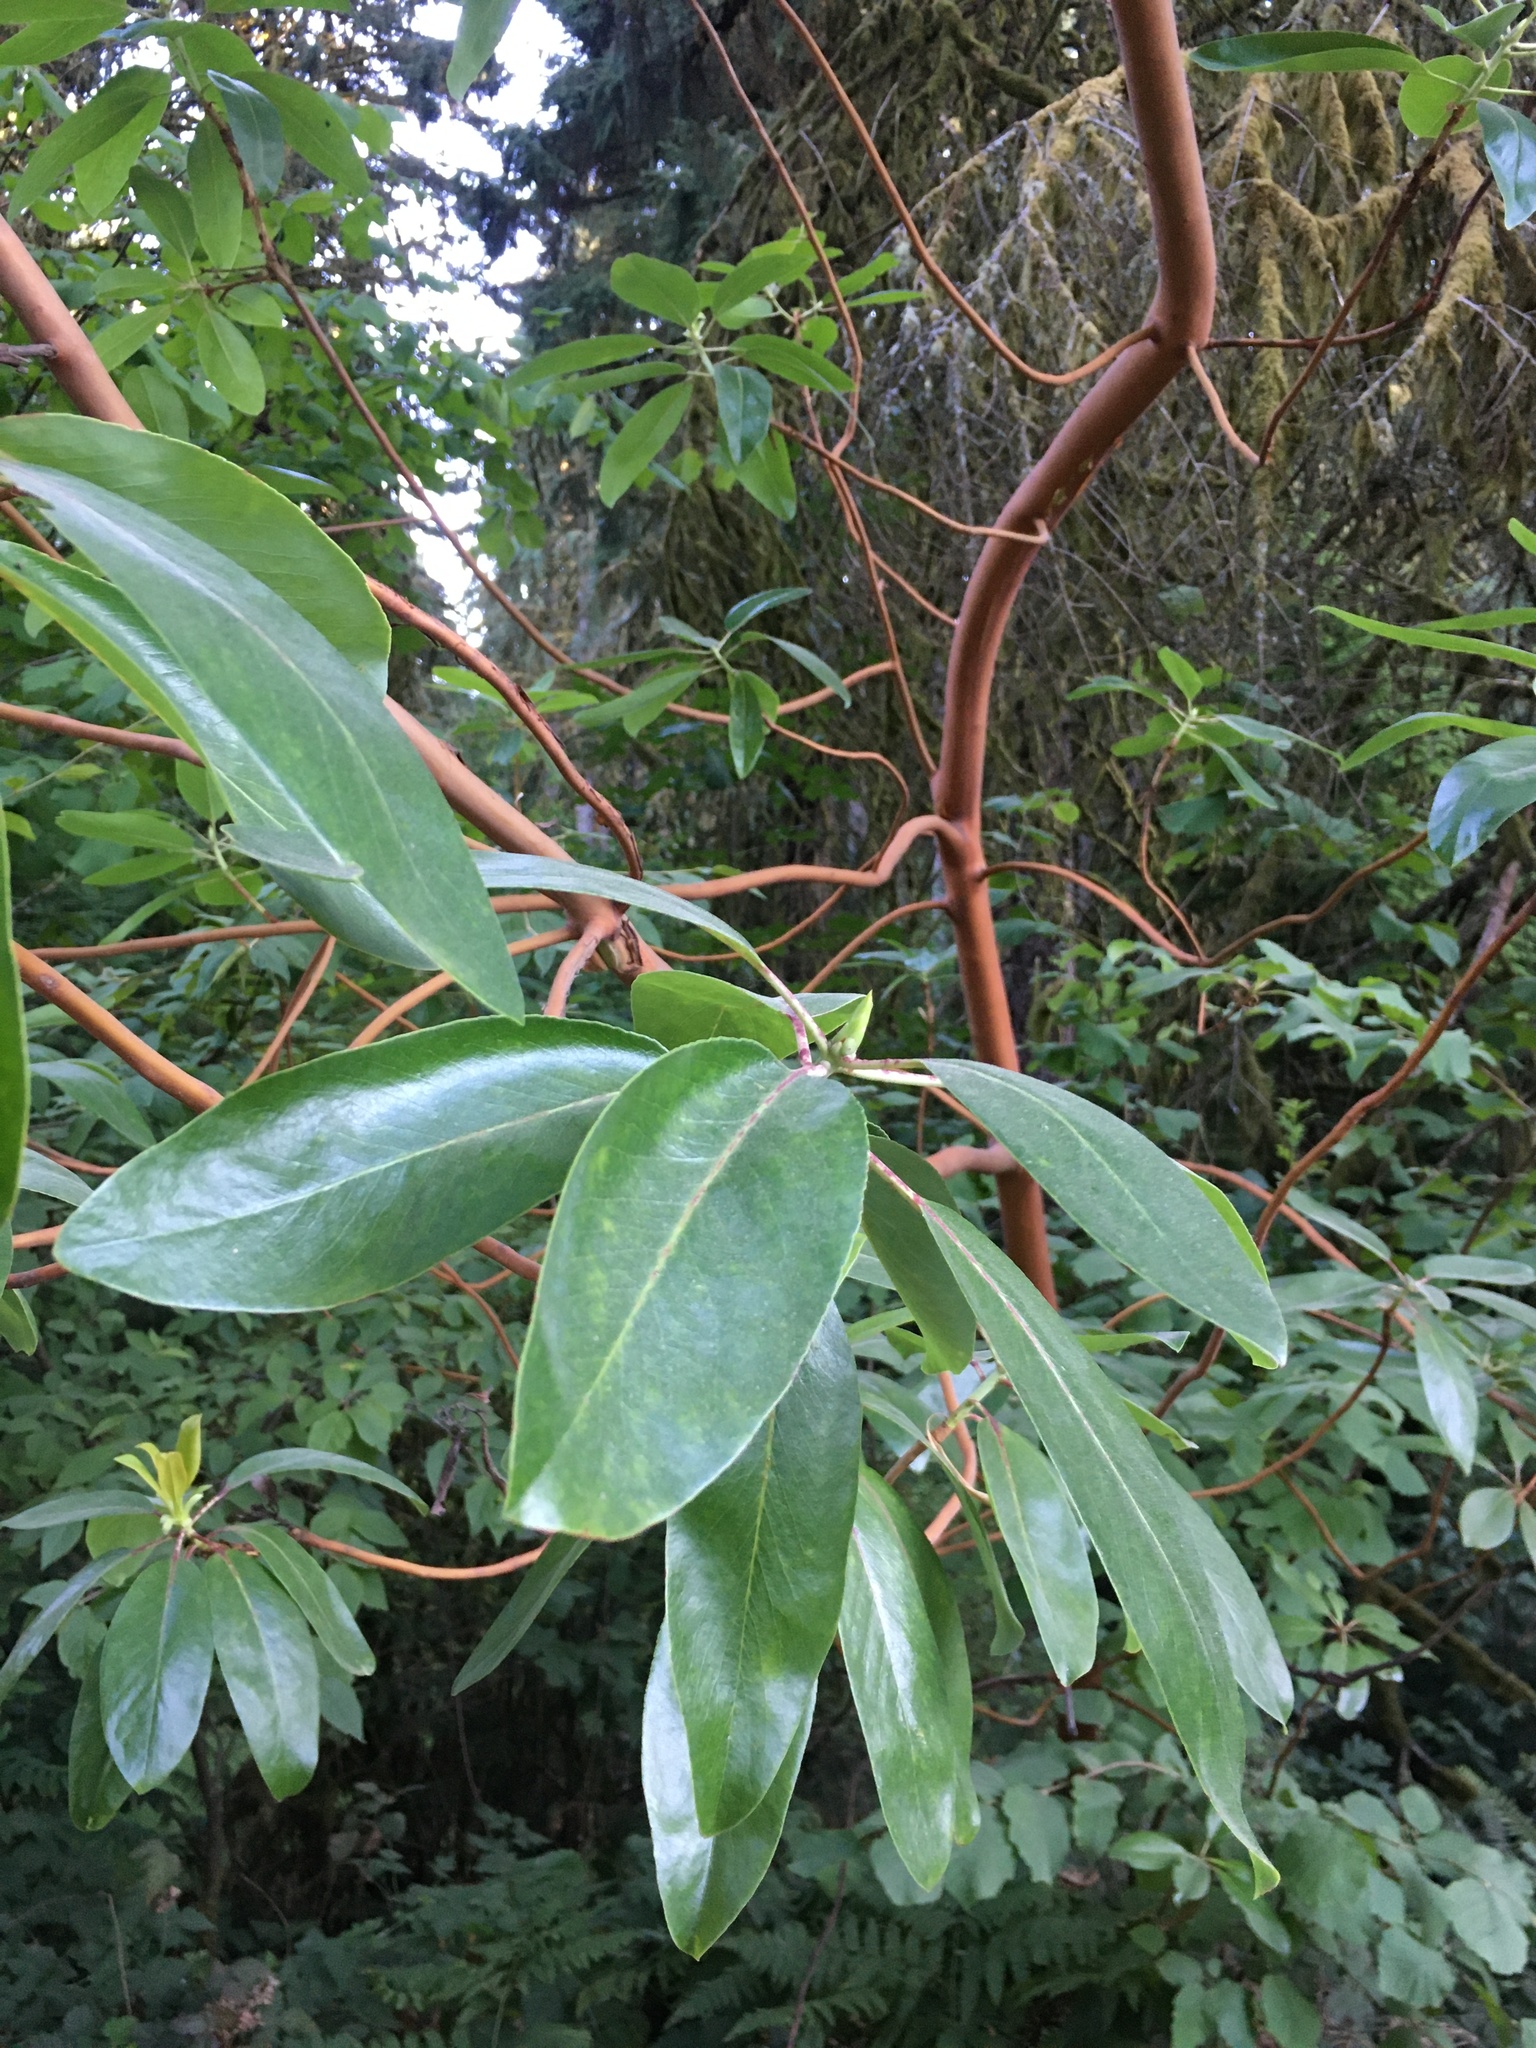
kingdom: Plantae
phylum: Tracheophyta
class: Magnoliopsida
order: Ericales
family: Ericaceae
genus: Arbutus
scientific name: Arbutus menziesii
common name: Pacific madrone
